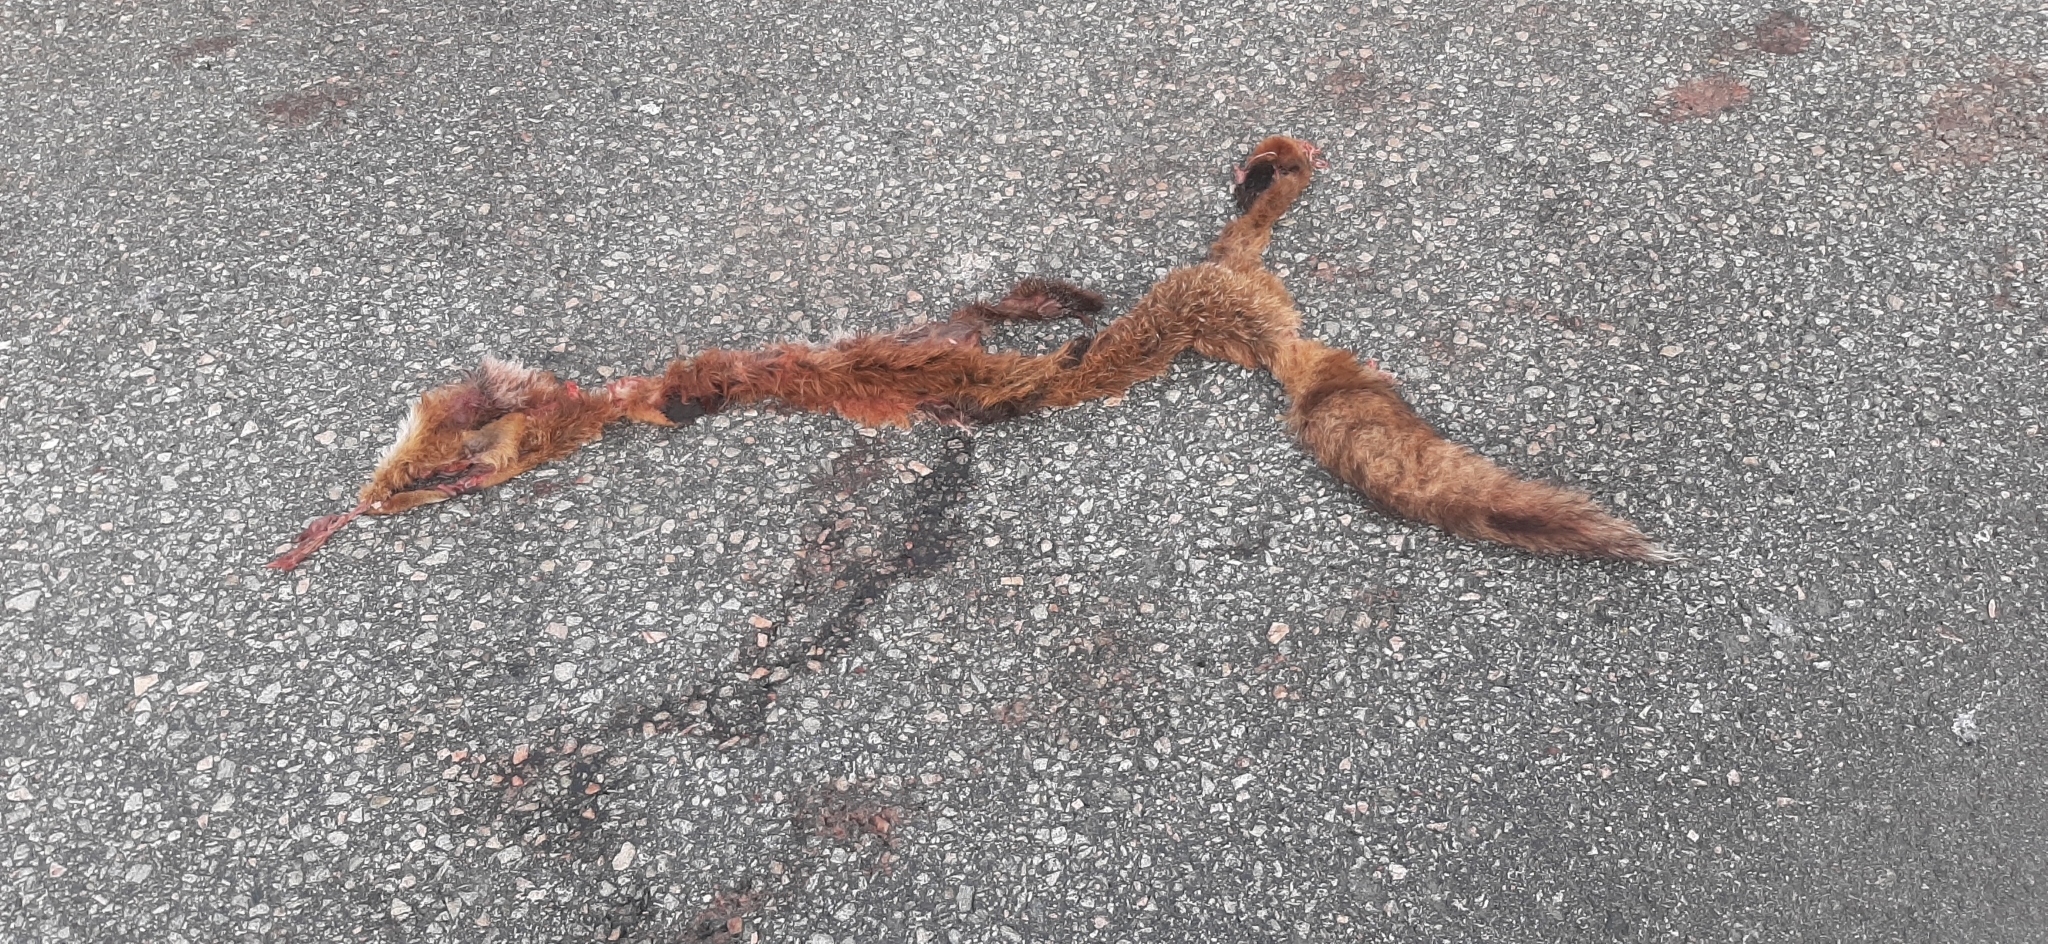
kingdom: Animalia
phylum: Chordata
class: Mammalia
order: Carnivora
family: Canidae
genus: Vulpes
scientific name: Vulpes vulpes
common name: Red fox
